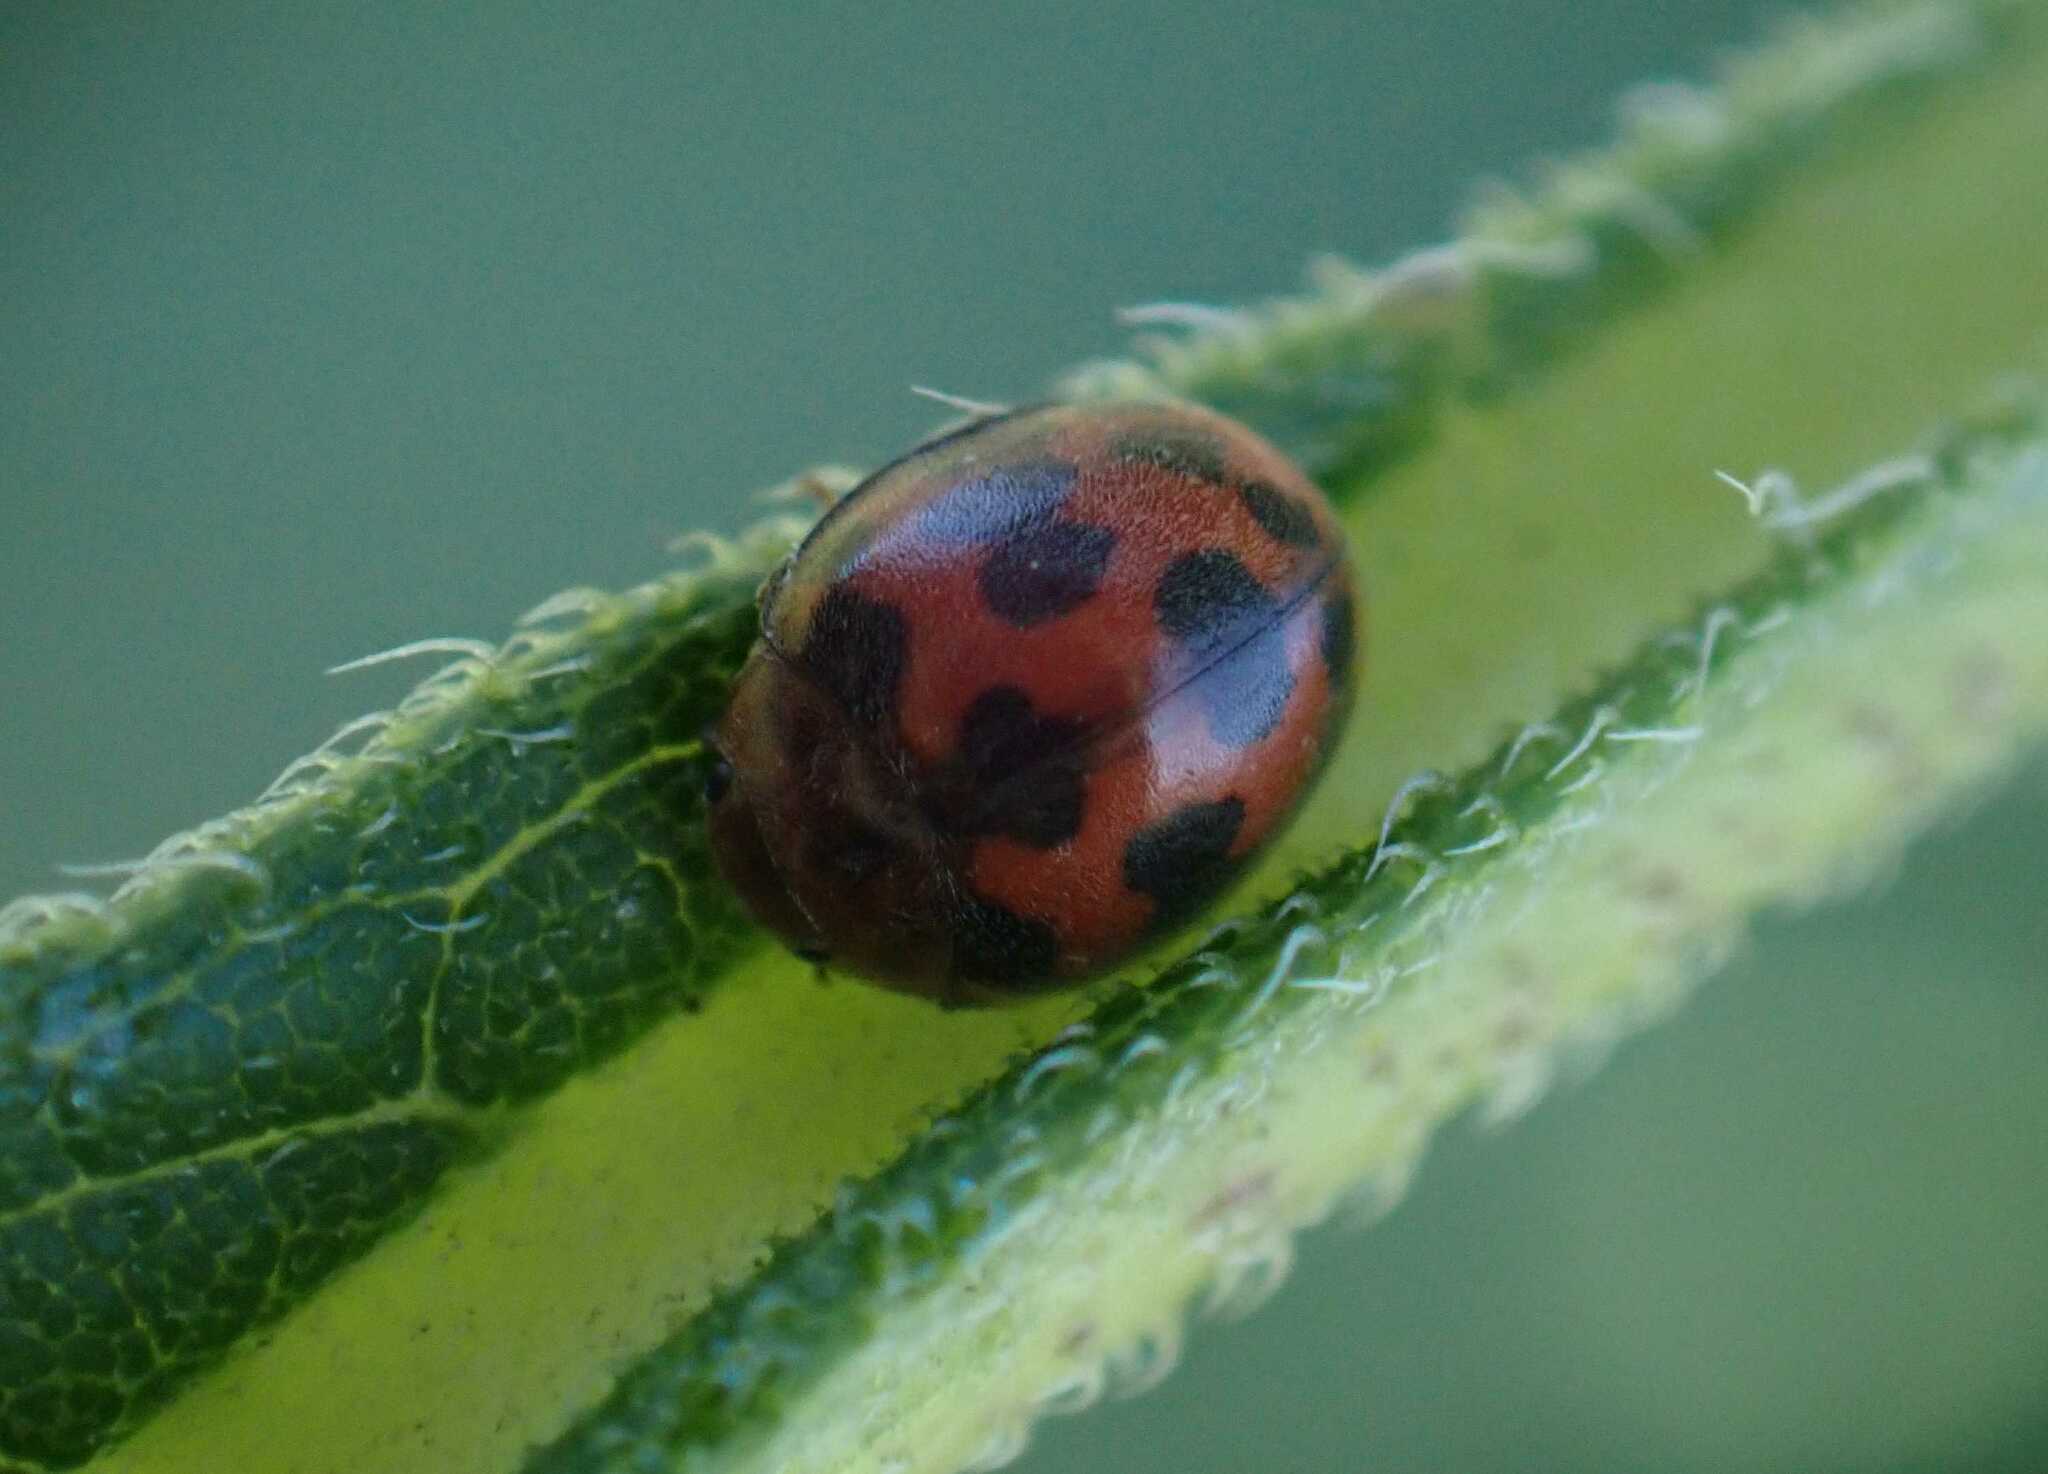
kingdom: Animalia
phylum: Arthropoda
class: Insecta
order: Coleoptera
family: Coccinellidae
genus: Subcoccinella
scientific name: Subcoccinella vigintiquatuorpunctata
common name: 24-spot ladybird
